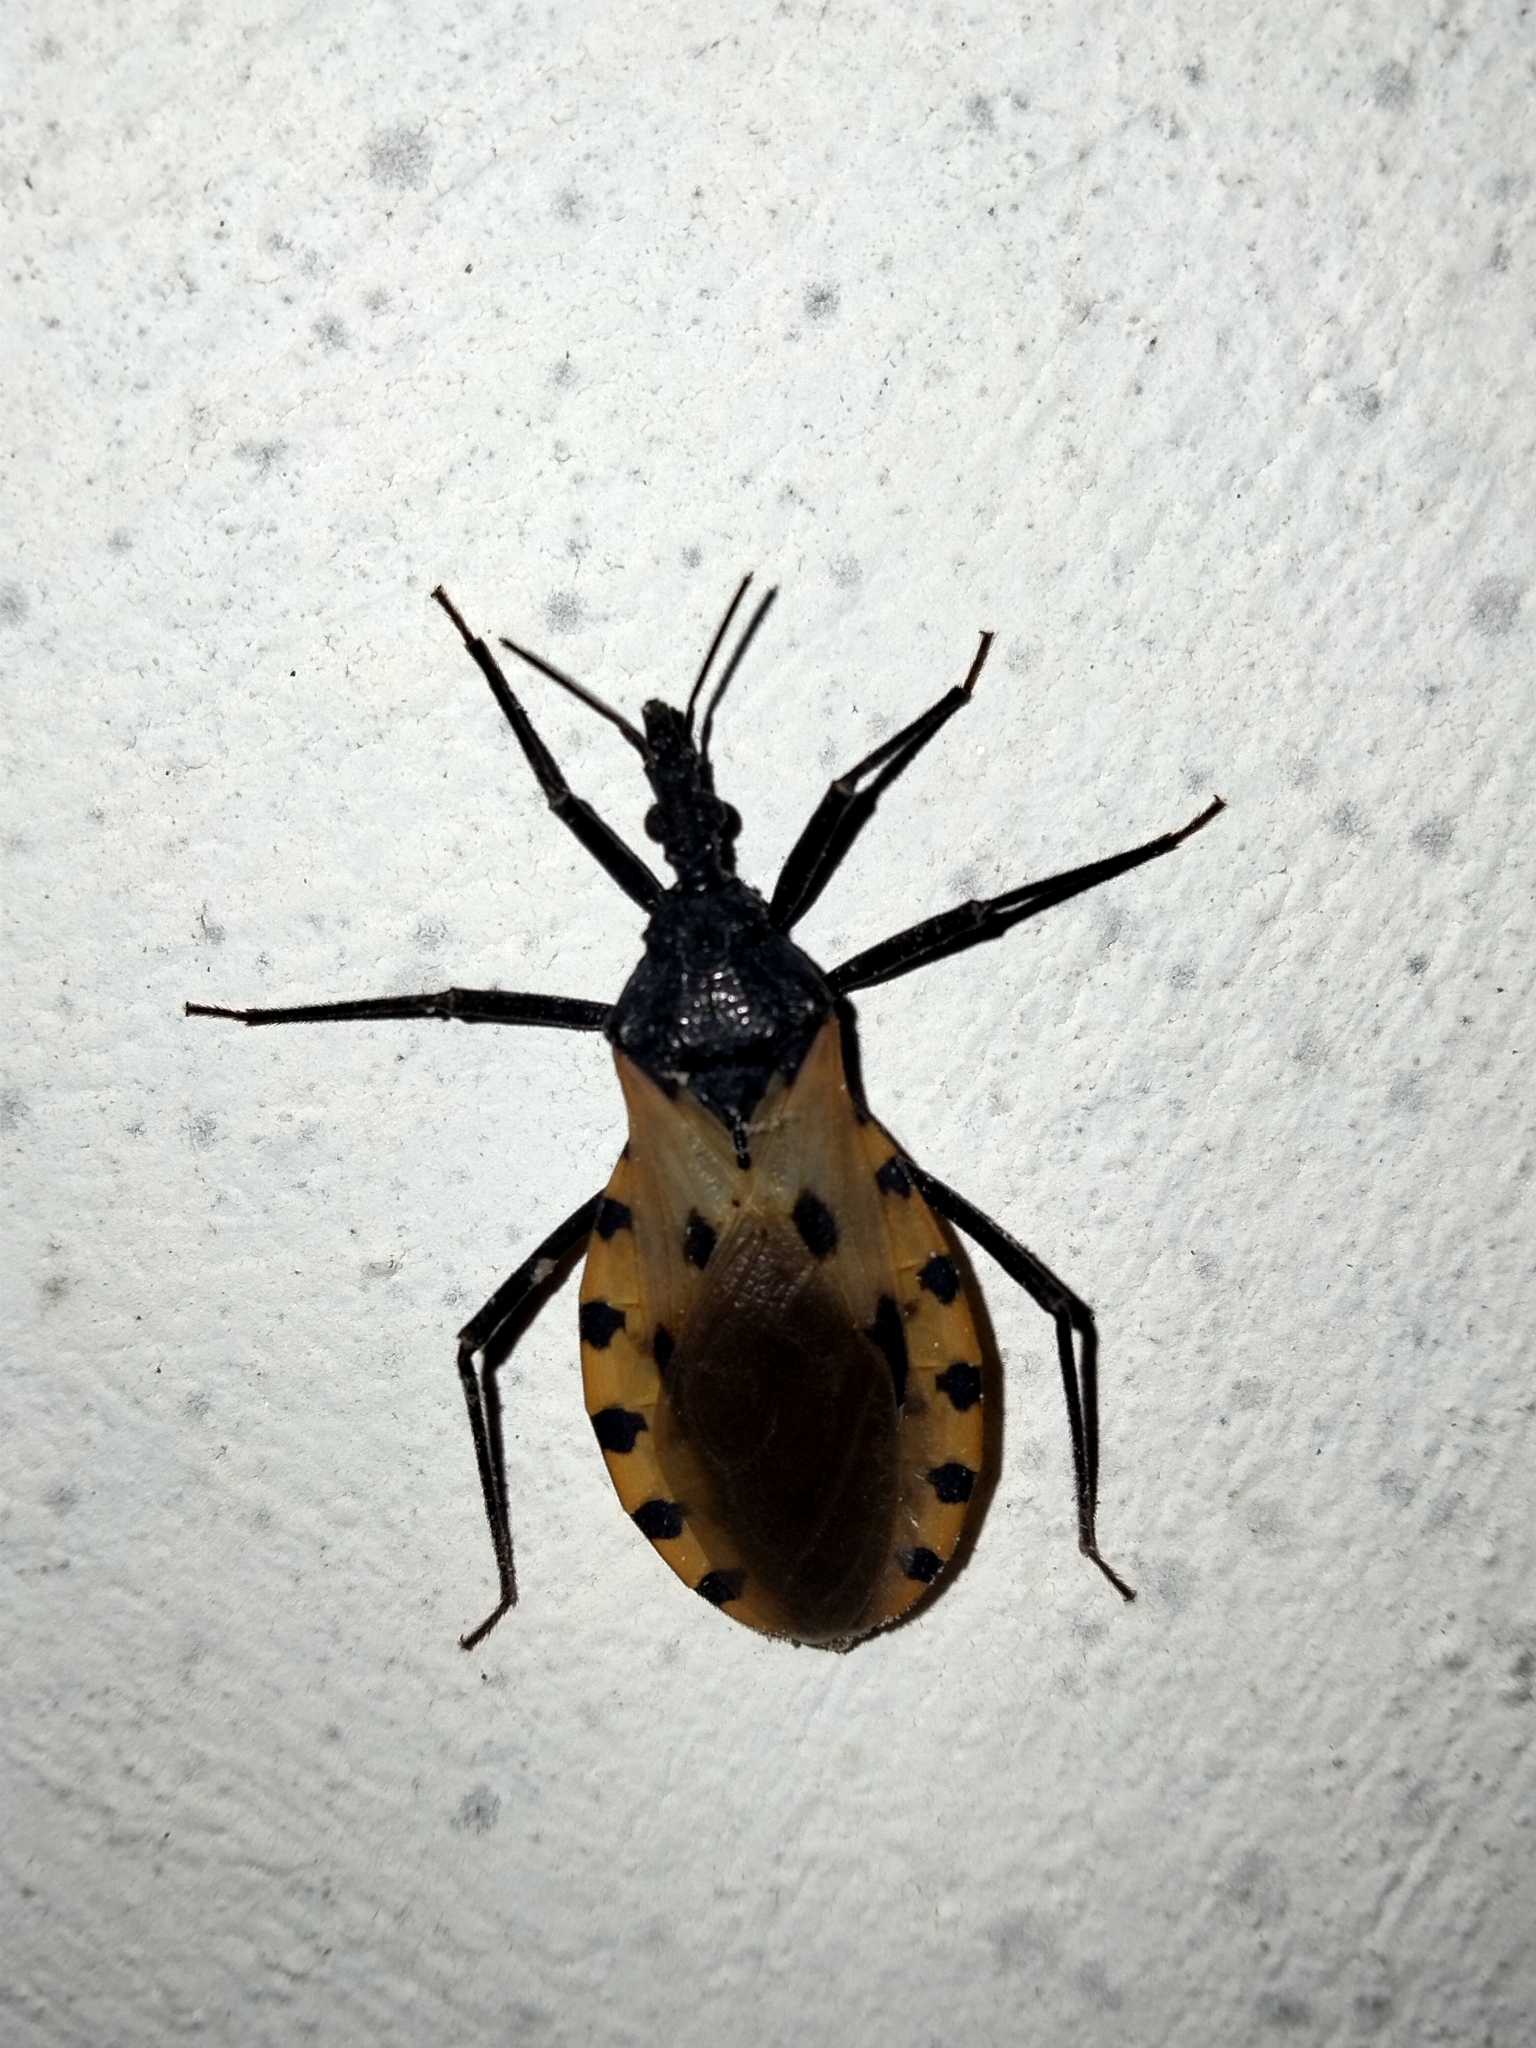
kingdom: Animalia
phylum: Arthropoda
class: Insecta
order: Hemiptera
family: Reduviidae
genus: Meccus
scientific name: Meccus dimidiatus
